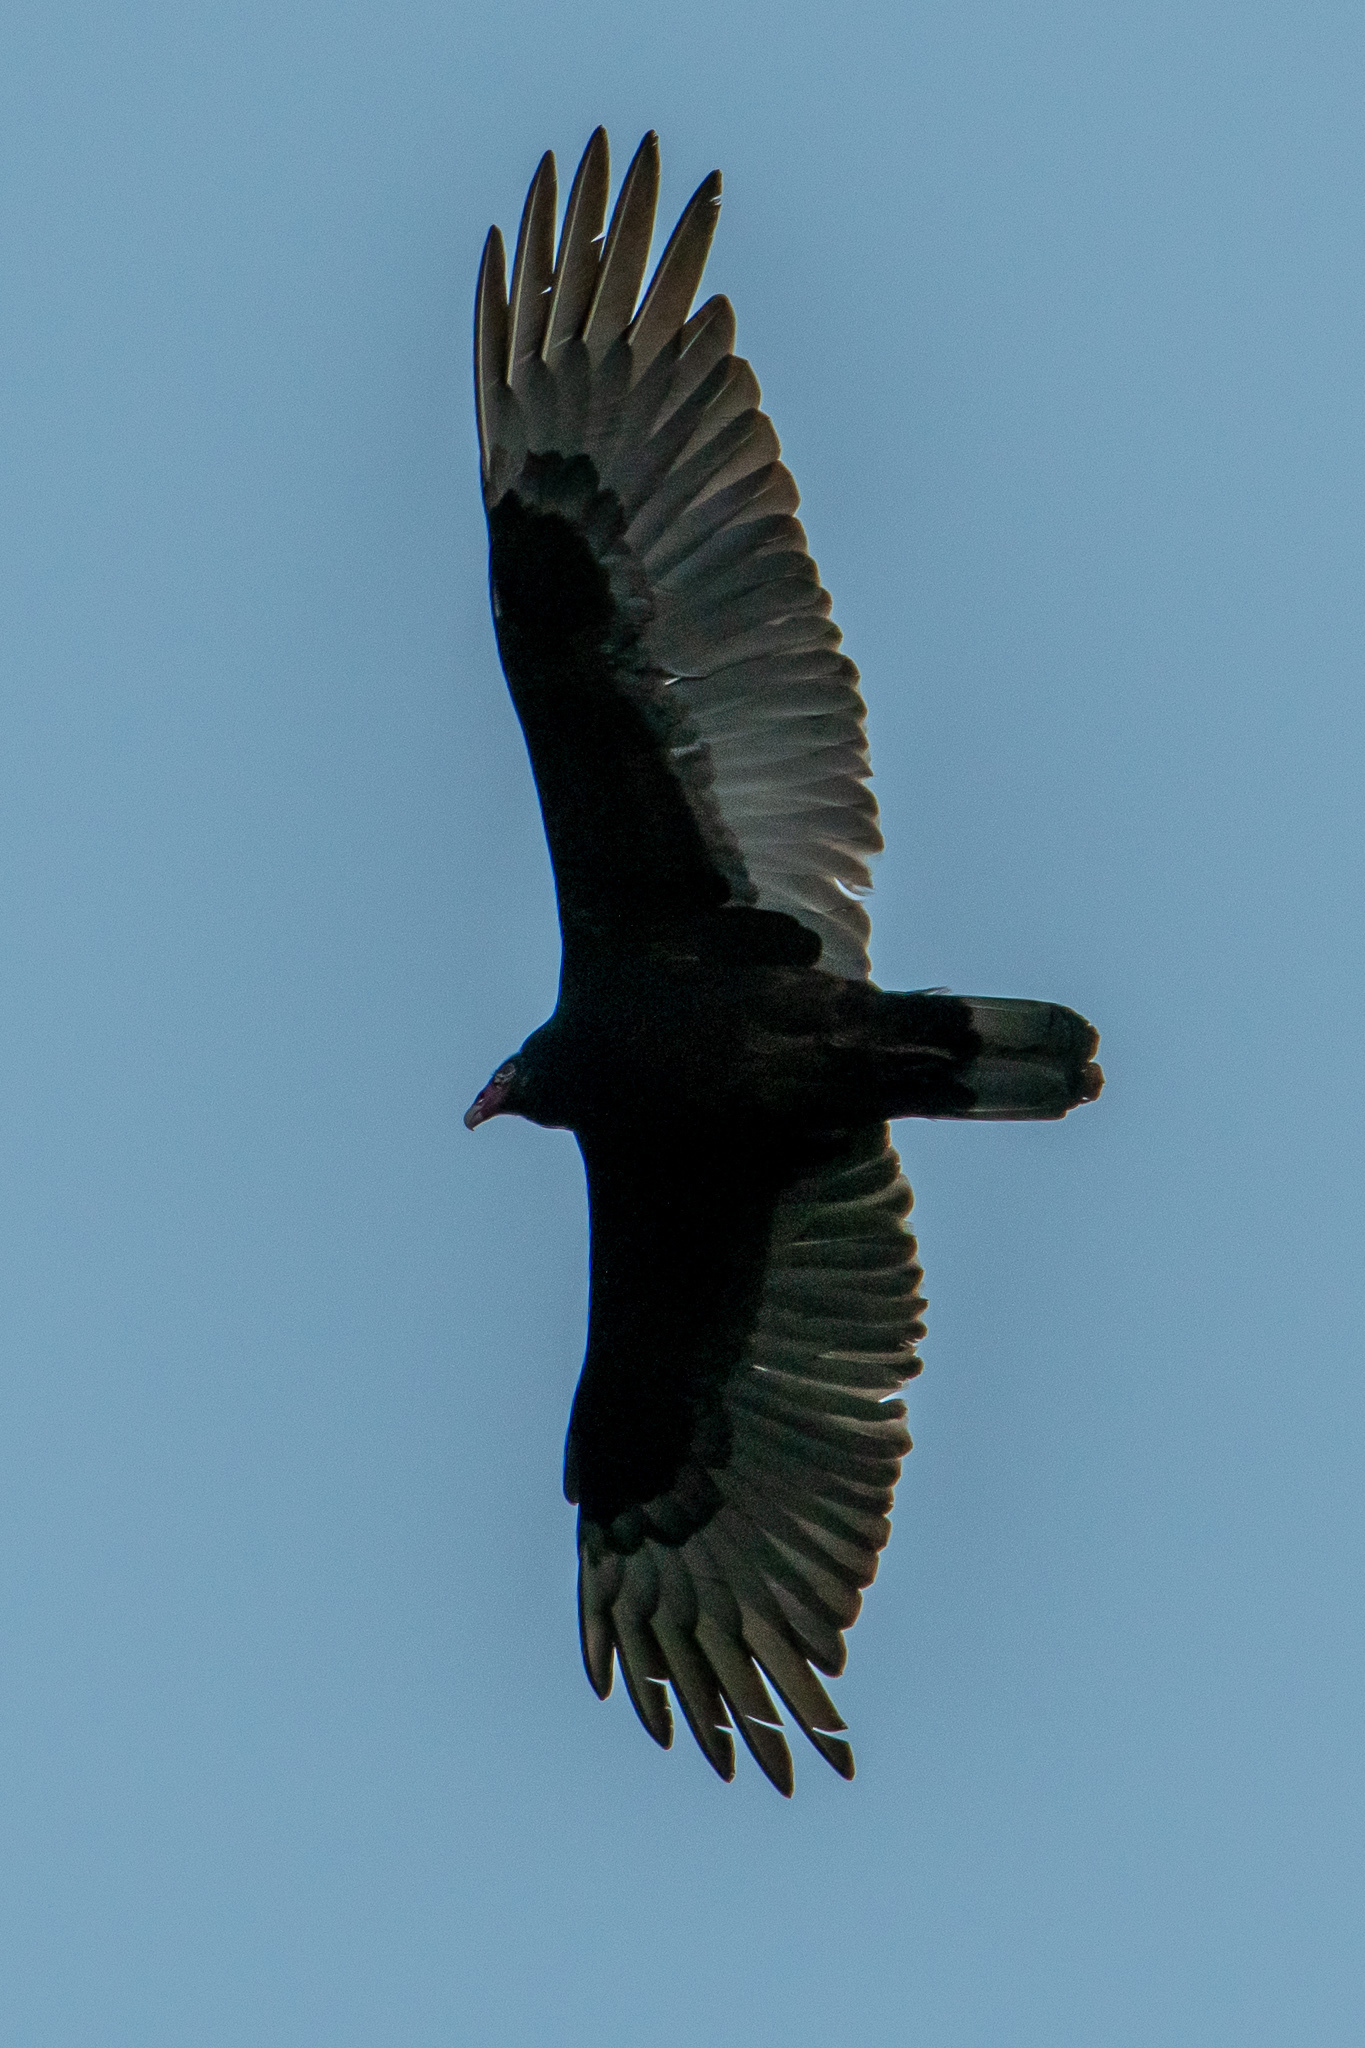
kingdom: Animalia
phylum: Chordata
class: Aves
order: Accipitriformes
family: Cathartidae
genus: Cathartes
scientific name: Cathartes aura
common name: Turkey vulture
